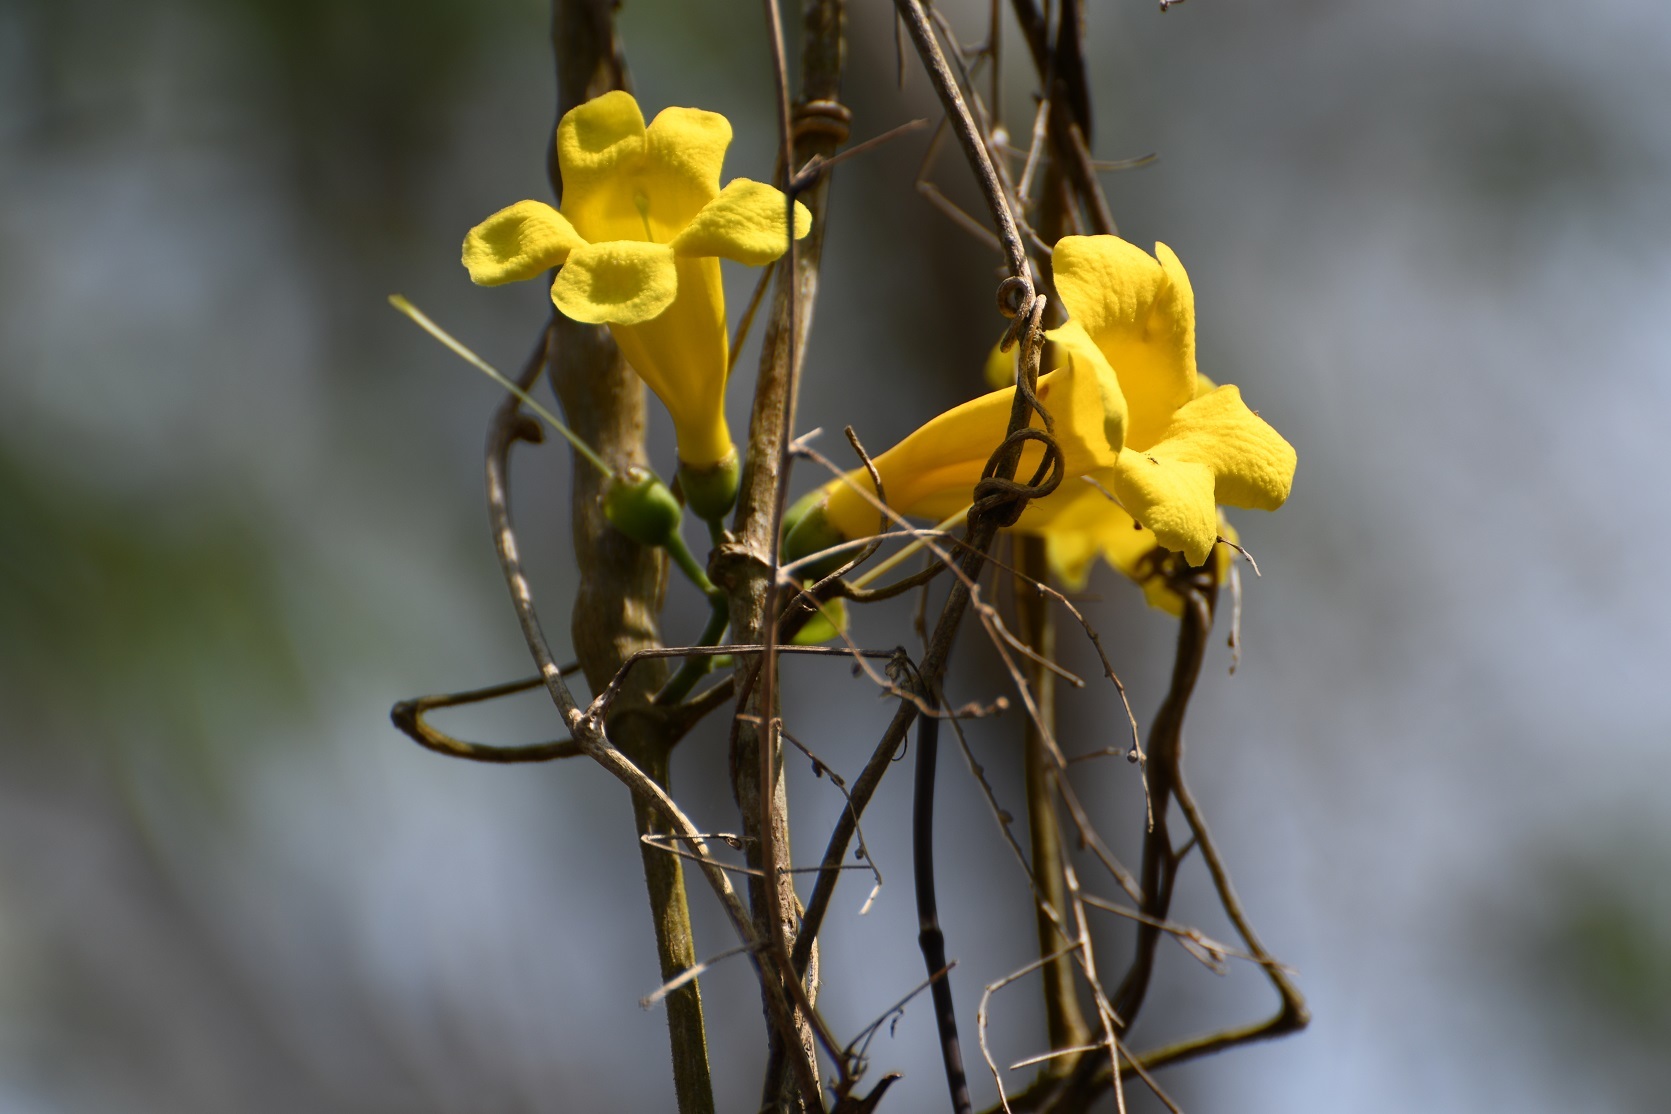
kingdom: Plantae
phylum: Tracheophyta
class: Magnoliopsida
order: Lamiales
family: Bignoniaceae
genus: Anemopaegma
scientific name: Anemopaegma chrysanthum
